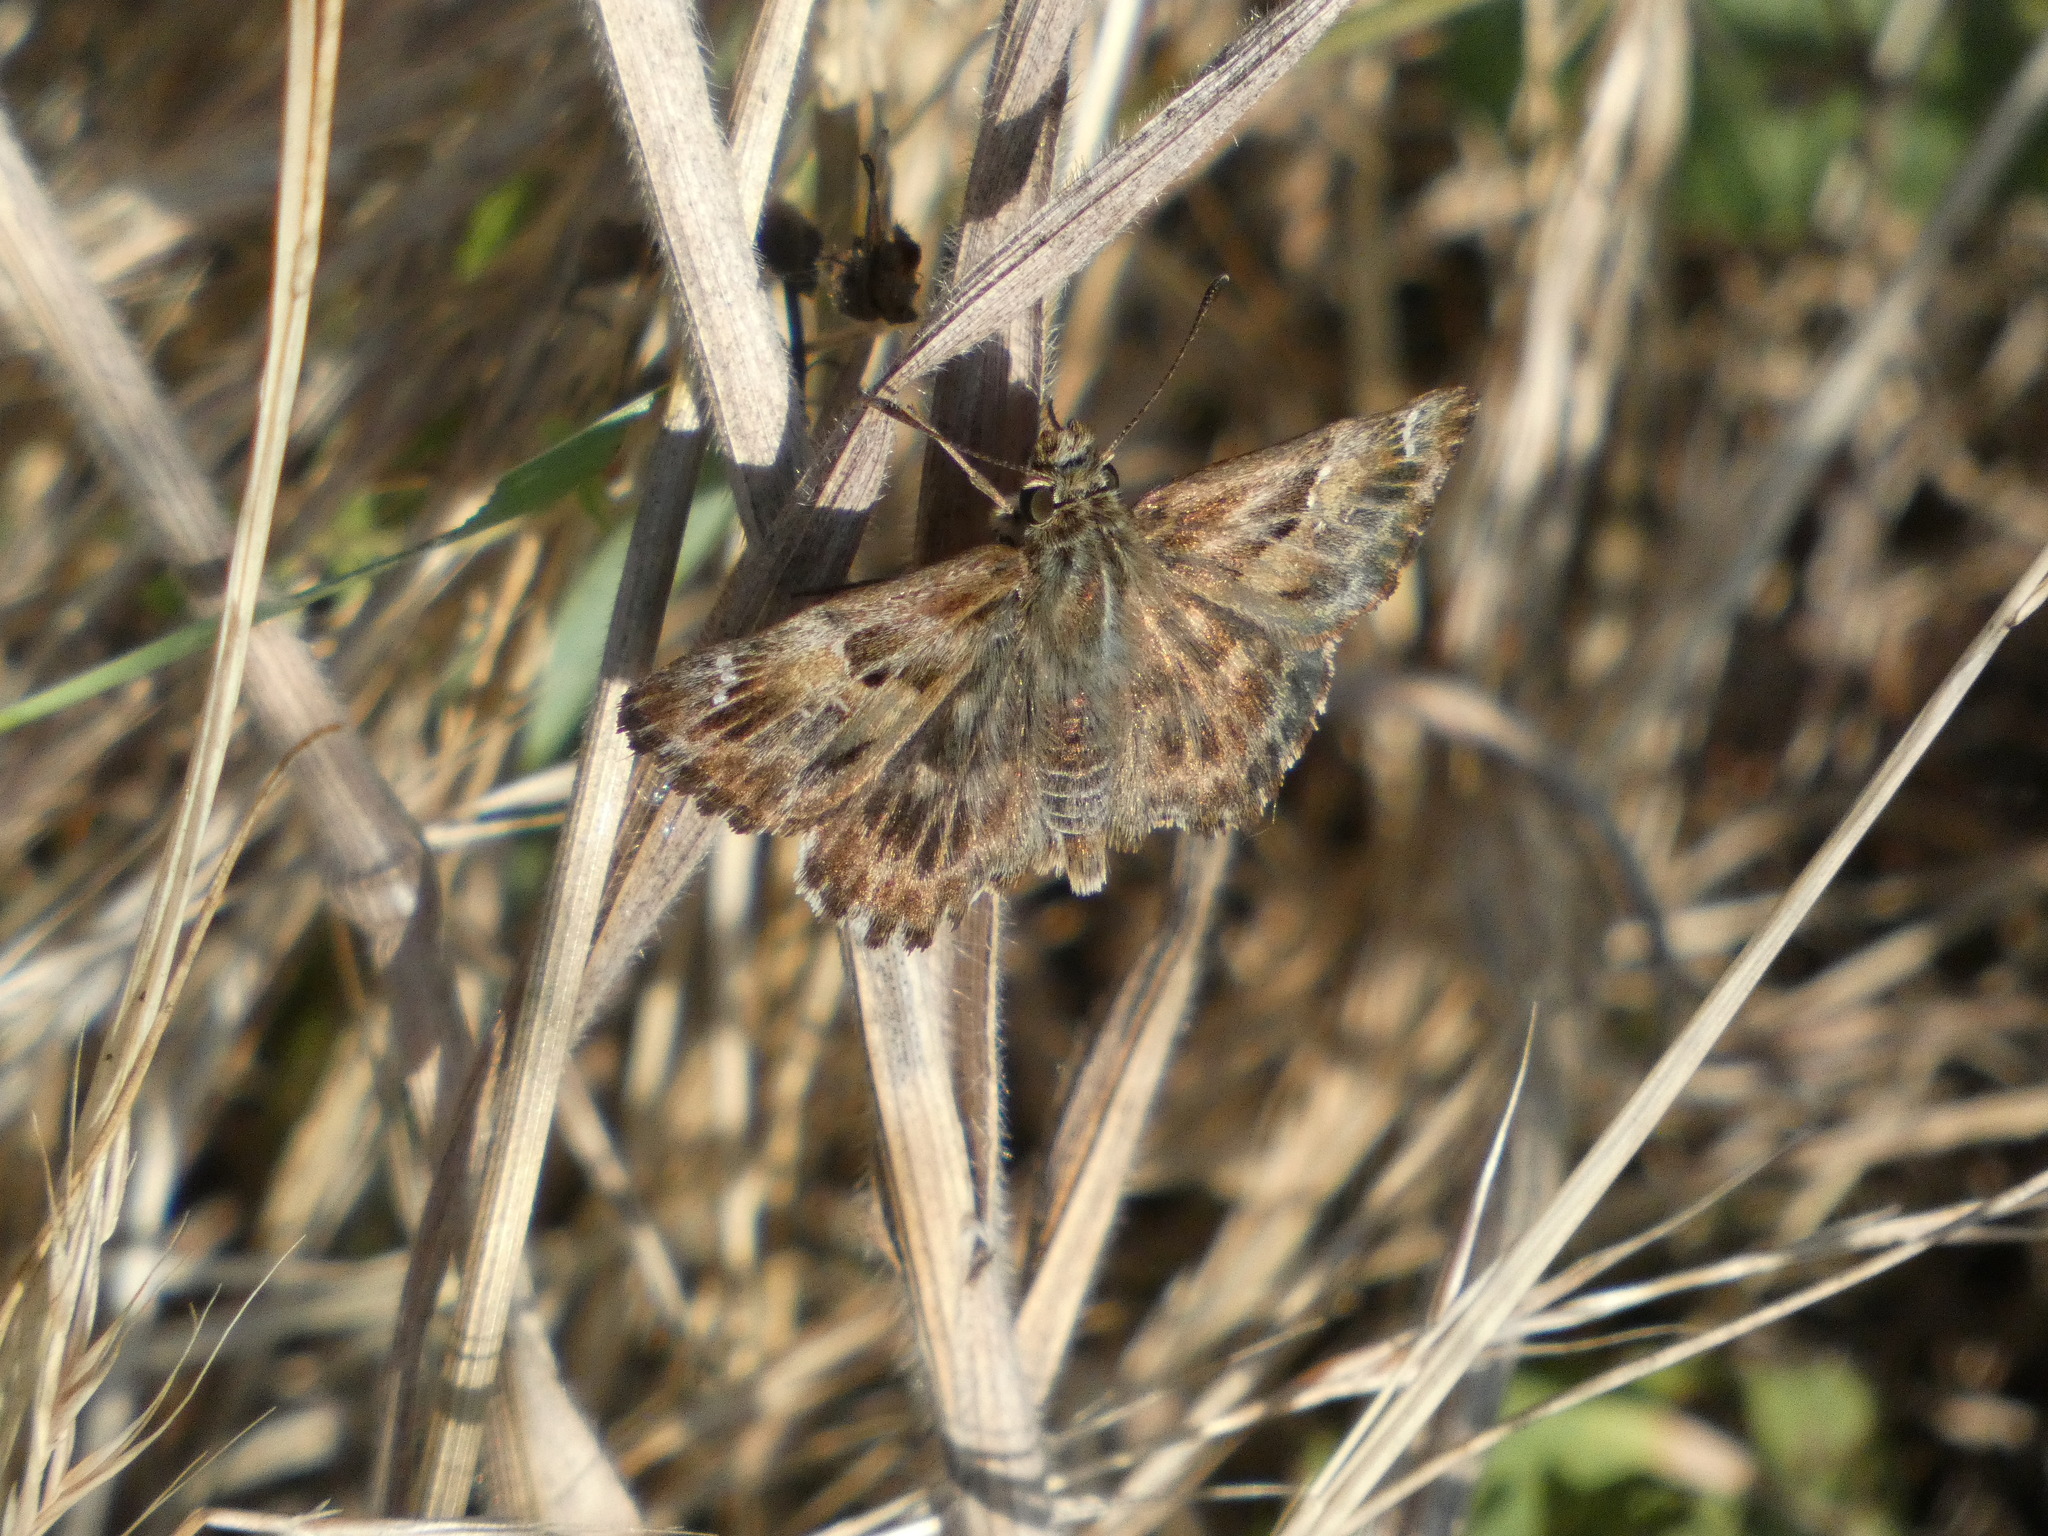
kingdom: Animalia
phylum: Arthropoda
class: Insecta
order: Lepidoptera
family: Hesperiidae
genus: Carcharodus
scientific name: Carcharodus alceae
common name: Mallow skipper
